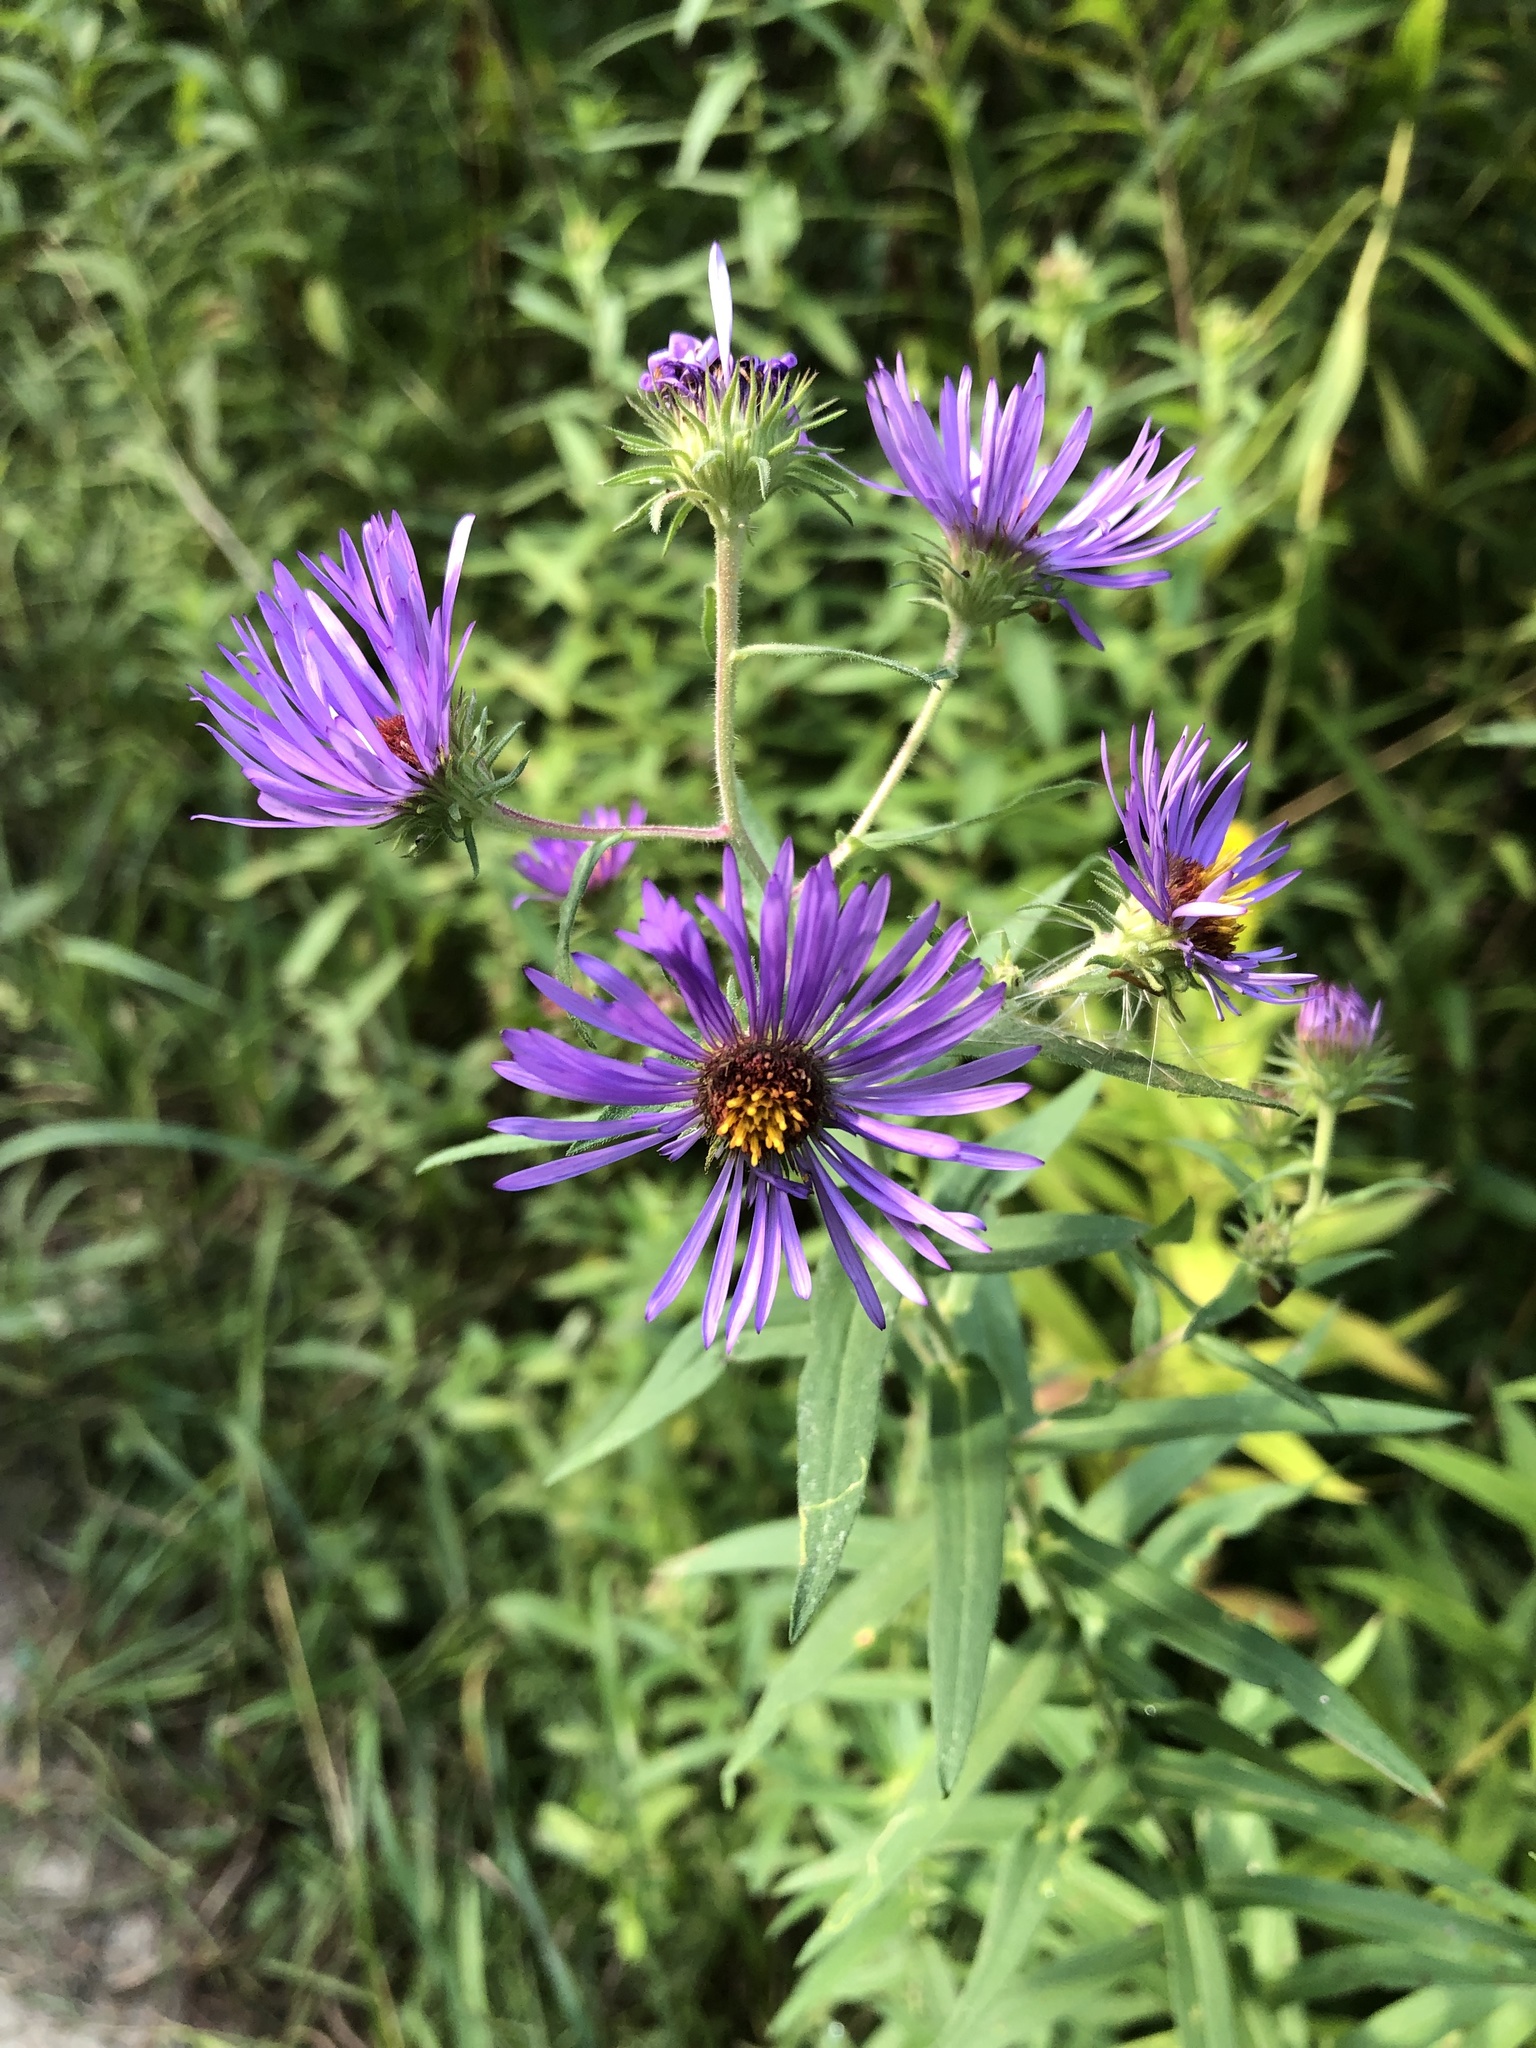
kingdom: Plantae
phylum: Tracheophyta
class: Magnoliopsida
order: Asterales
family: Asteraceae
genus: Symphyotrichum
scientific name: Symphyotrichum novae-angliae
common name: Michaelmas daisy
